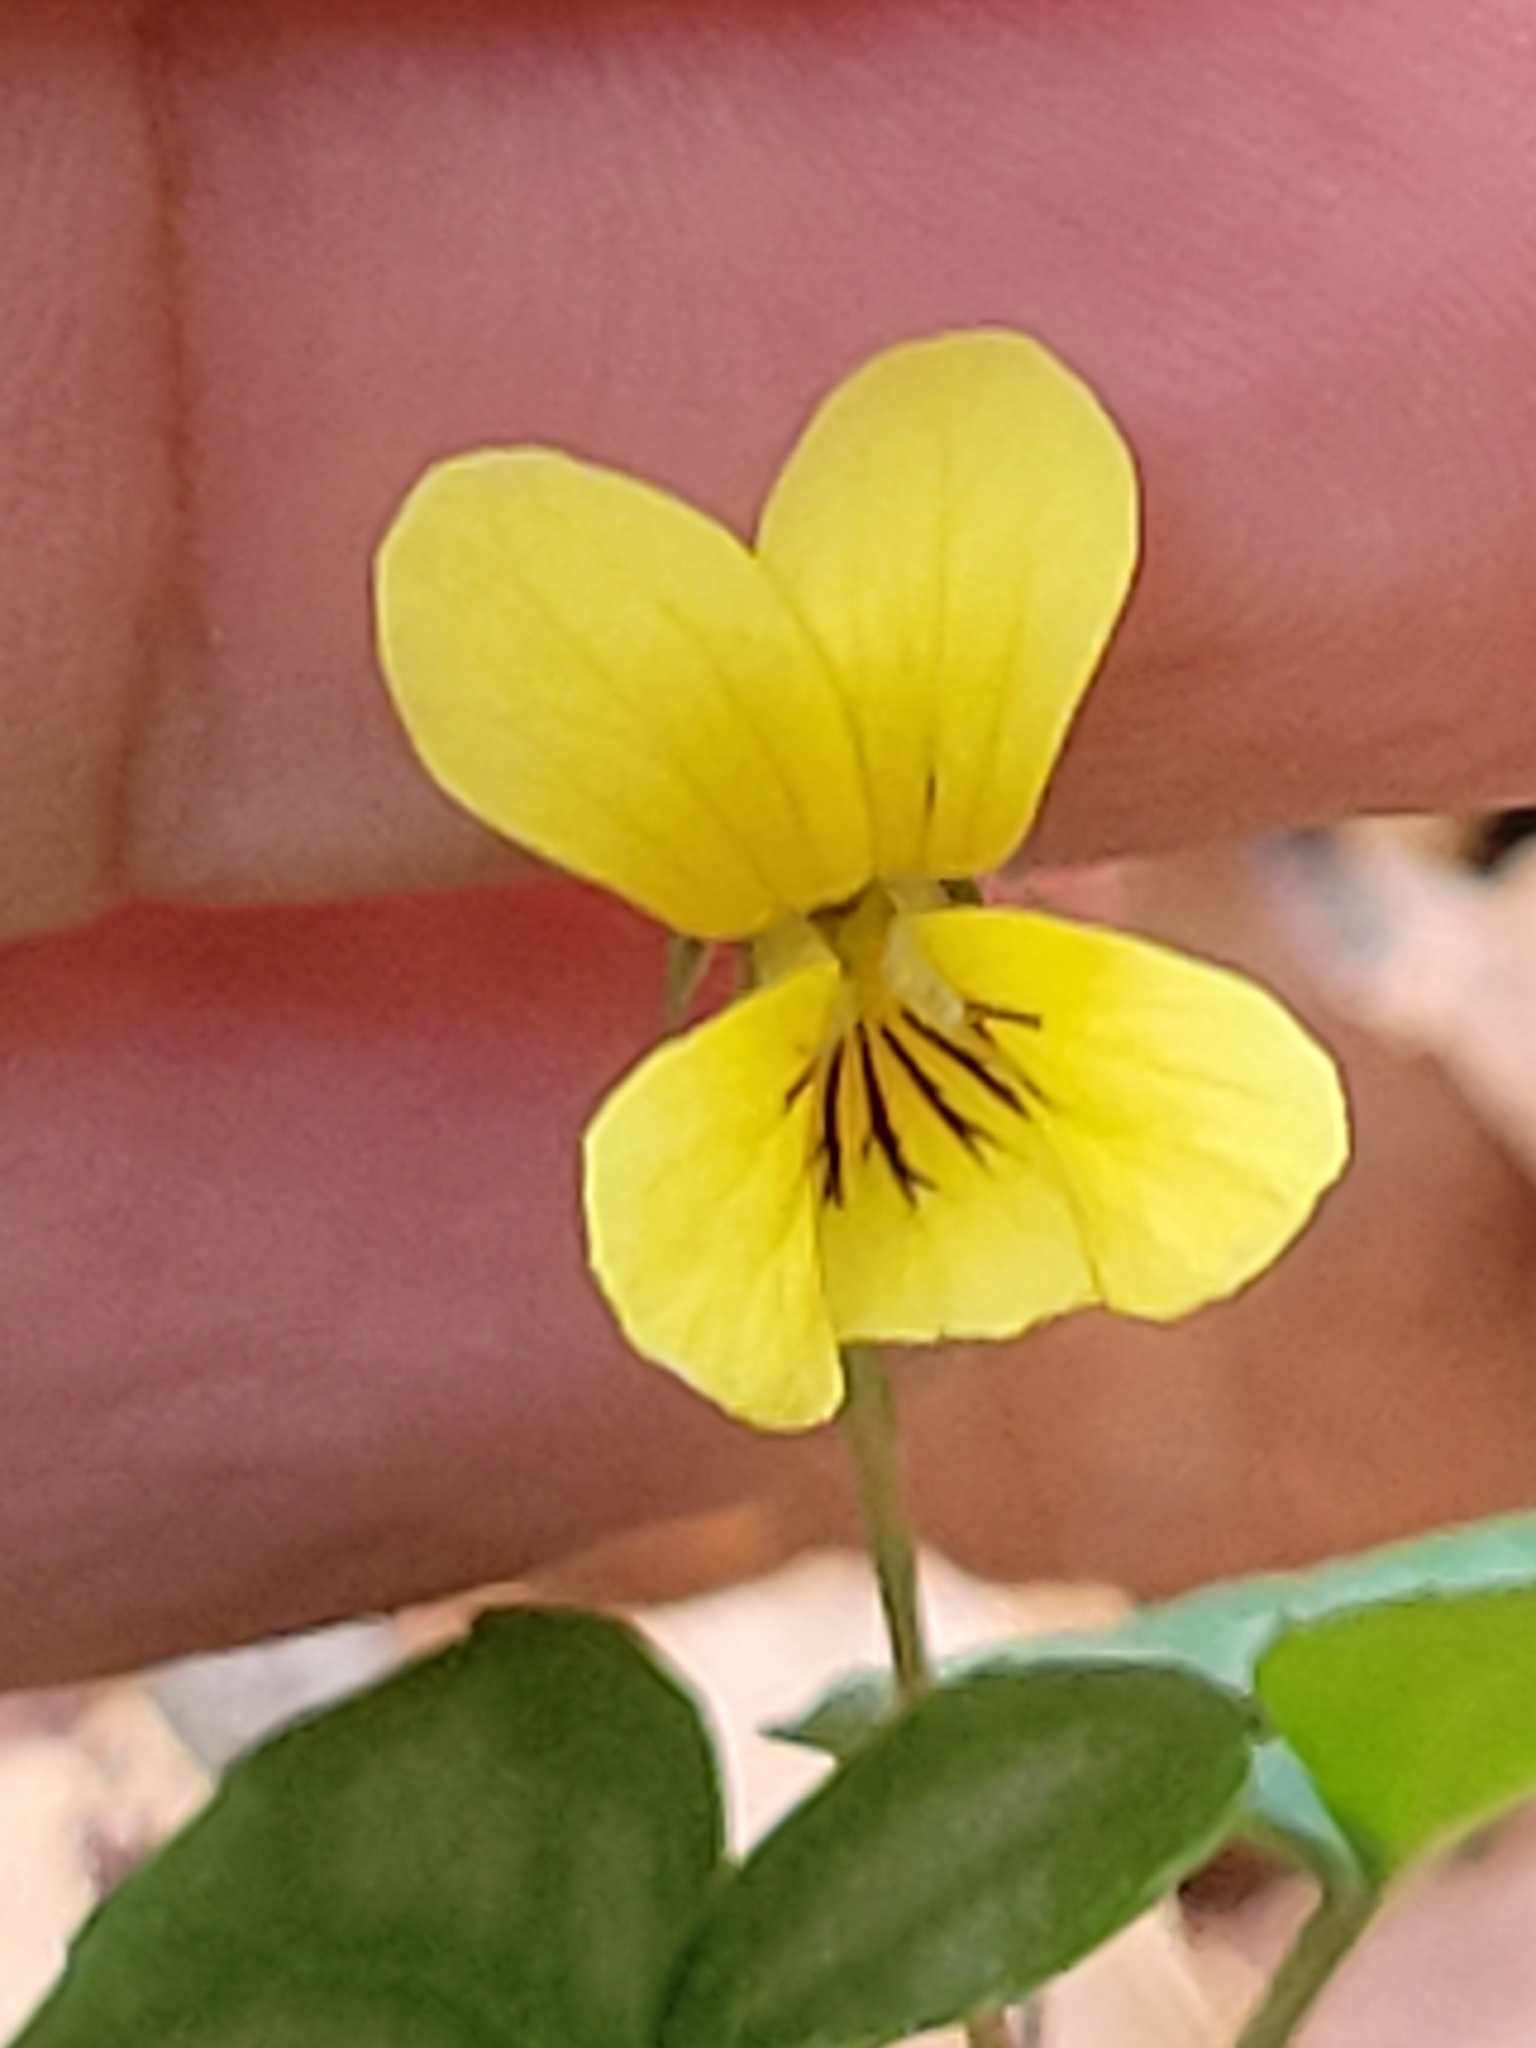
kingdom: Plantae
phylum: Tracheophyta
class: Magnoliopsida
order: Malpighiales
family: Violaceae
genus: Viola
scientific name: Viola hastata
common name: Spear-leaf violet
